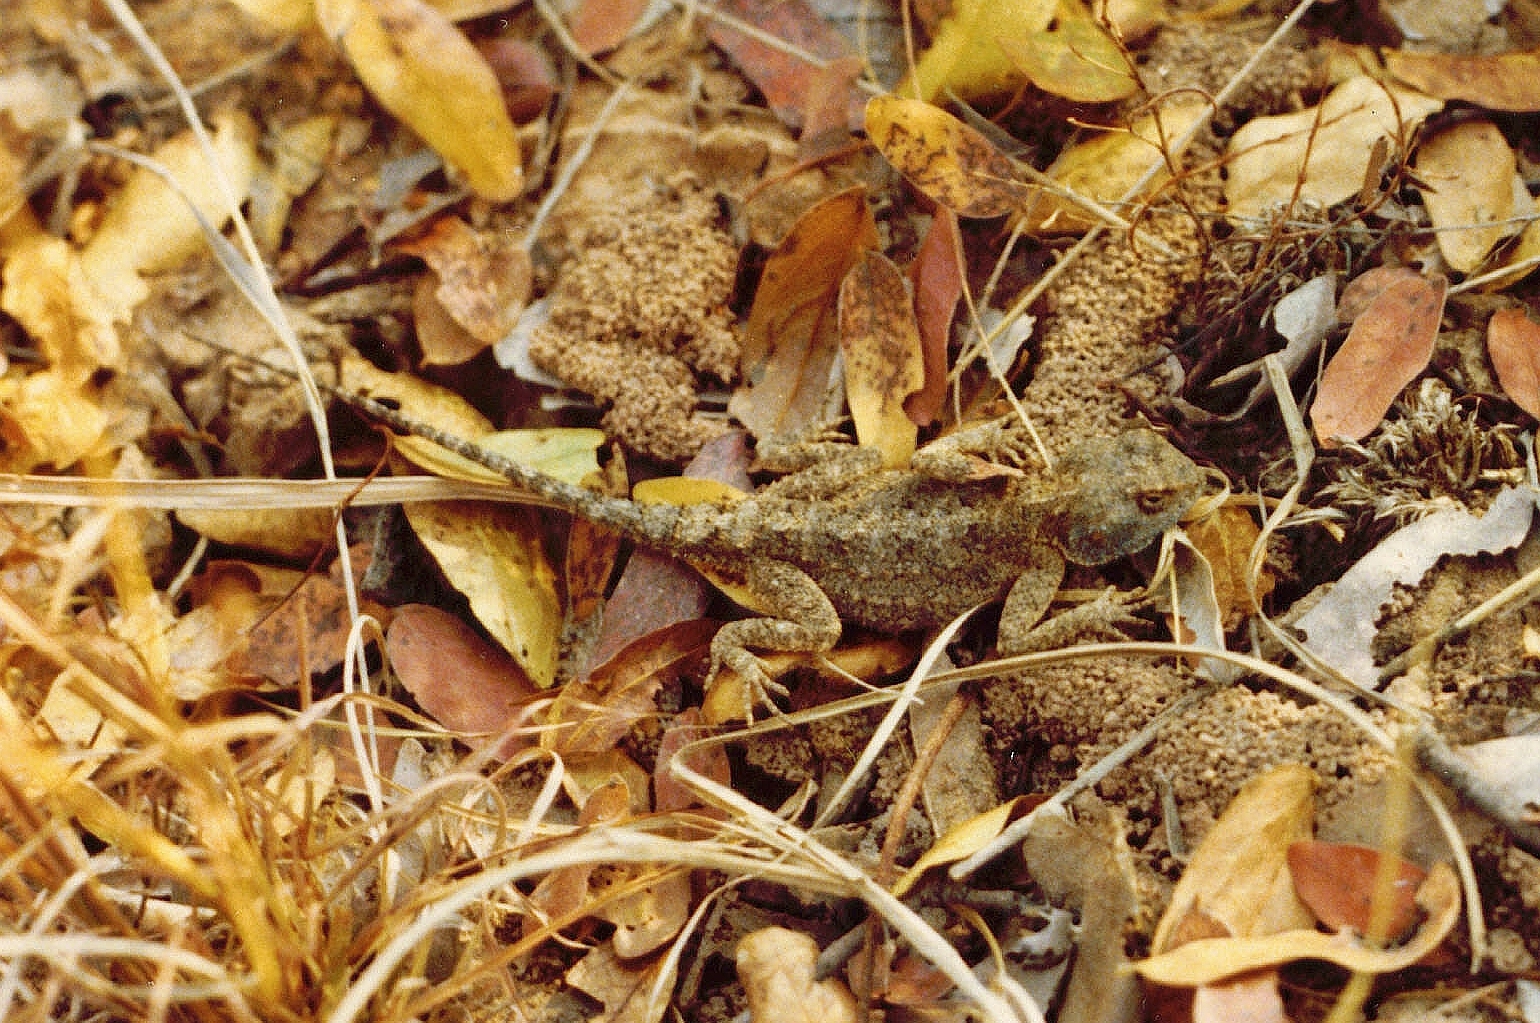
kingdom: Animalia
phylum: Chordata
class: Squamata
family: Agamidae
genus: Agama
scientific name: Agama armata
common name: Northern ground agama
